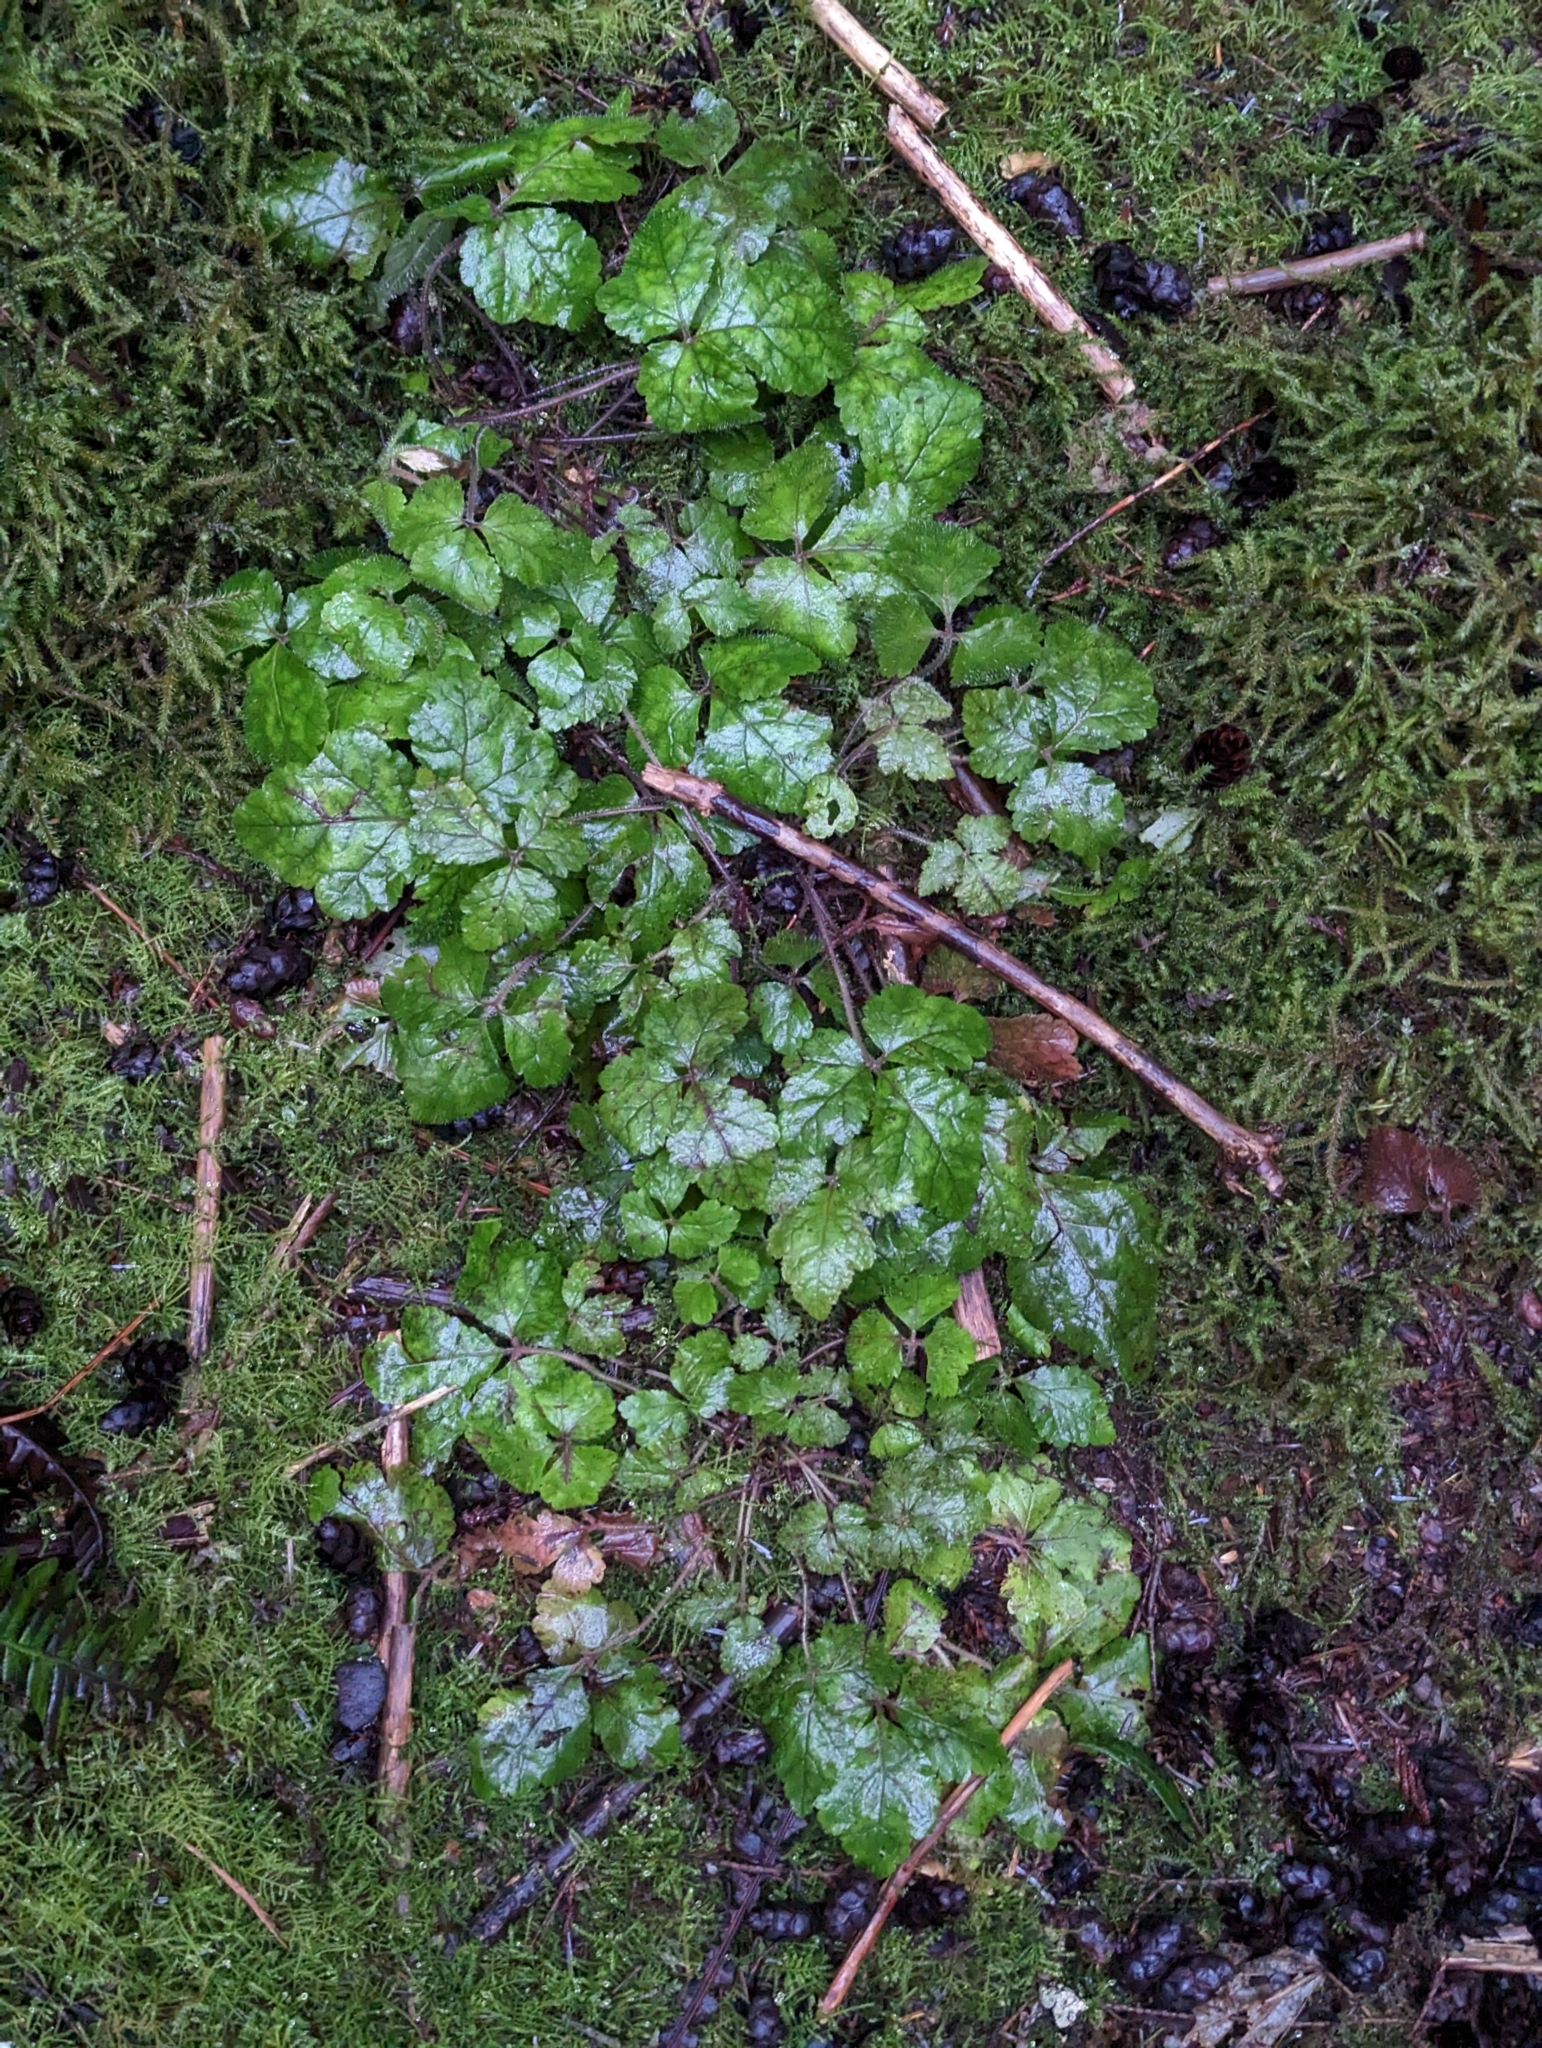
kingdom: Plantae
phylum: Tracheophyta
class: Magnoliopsida
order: Saxifragales
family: Saxifragaceae
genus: Tiarella
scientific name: Tiarella trifoliata
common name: Sugar-scoop
